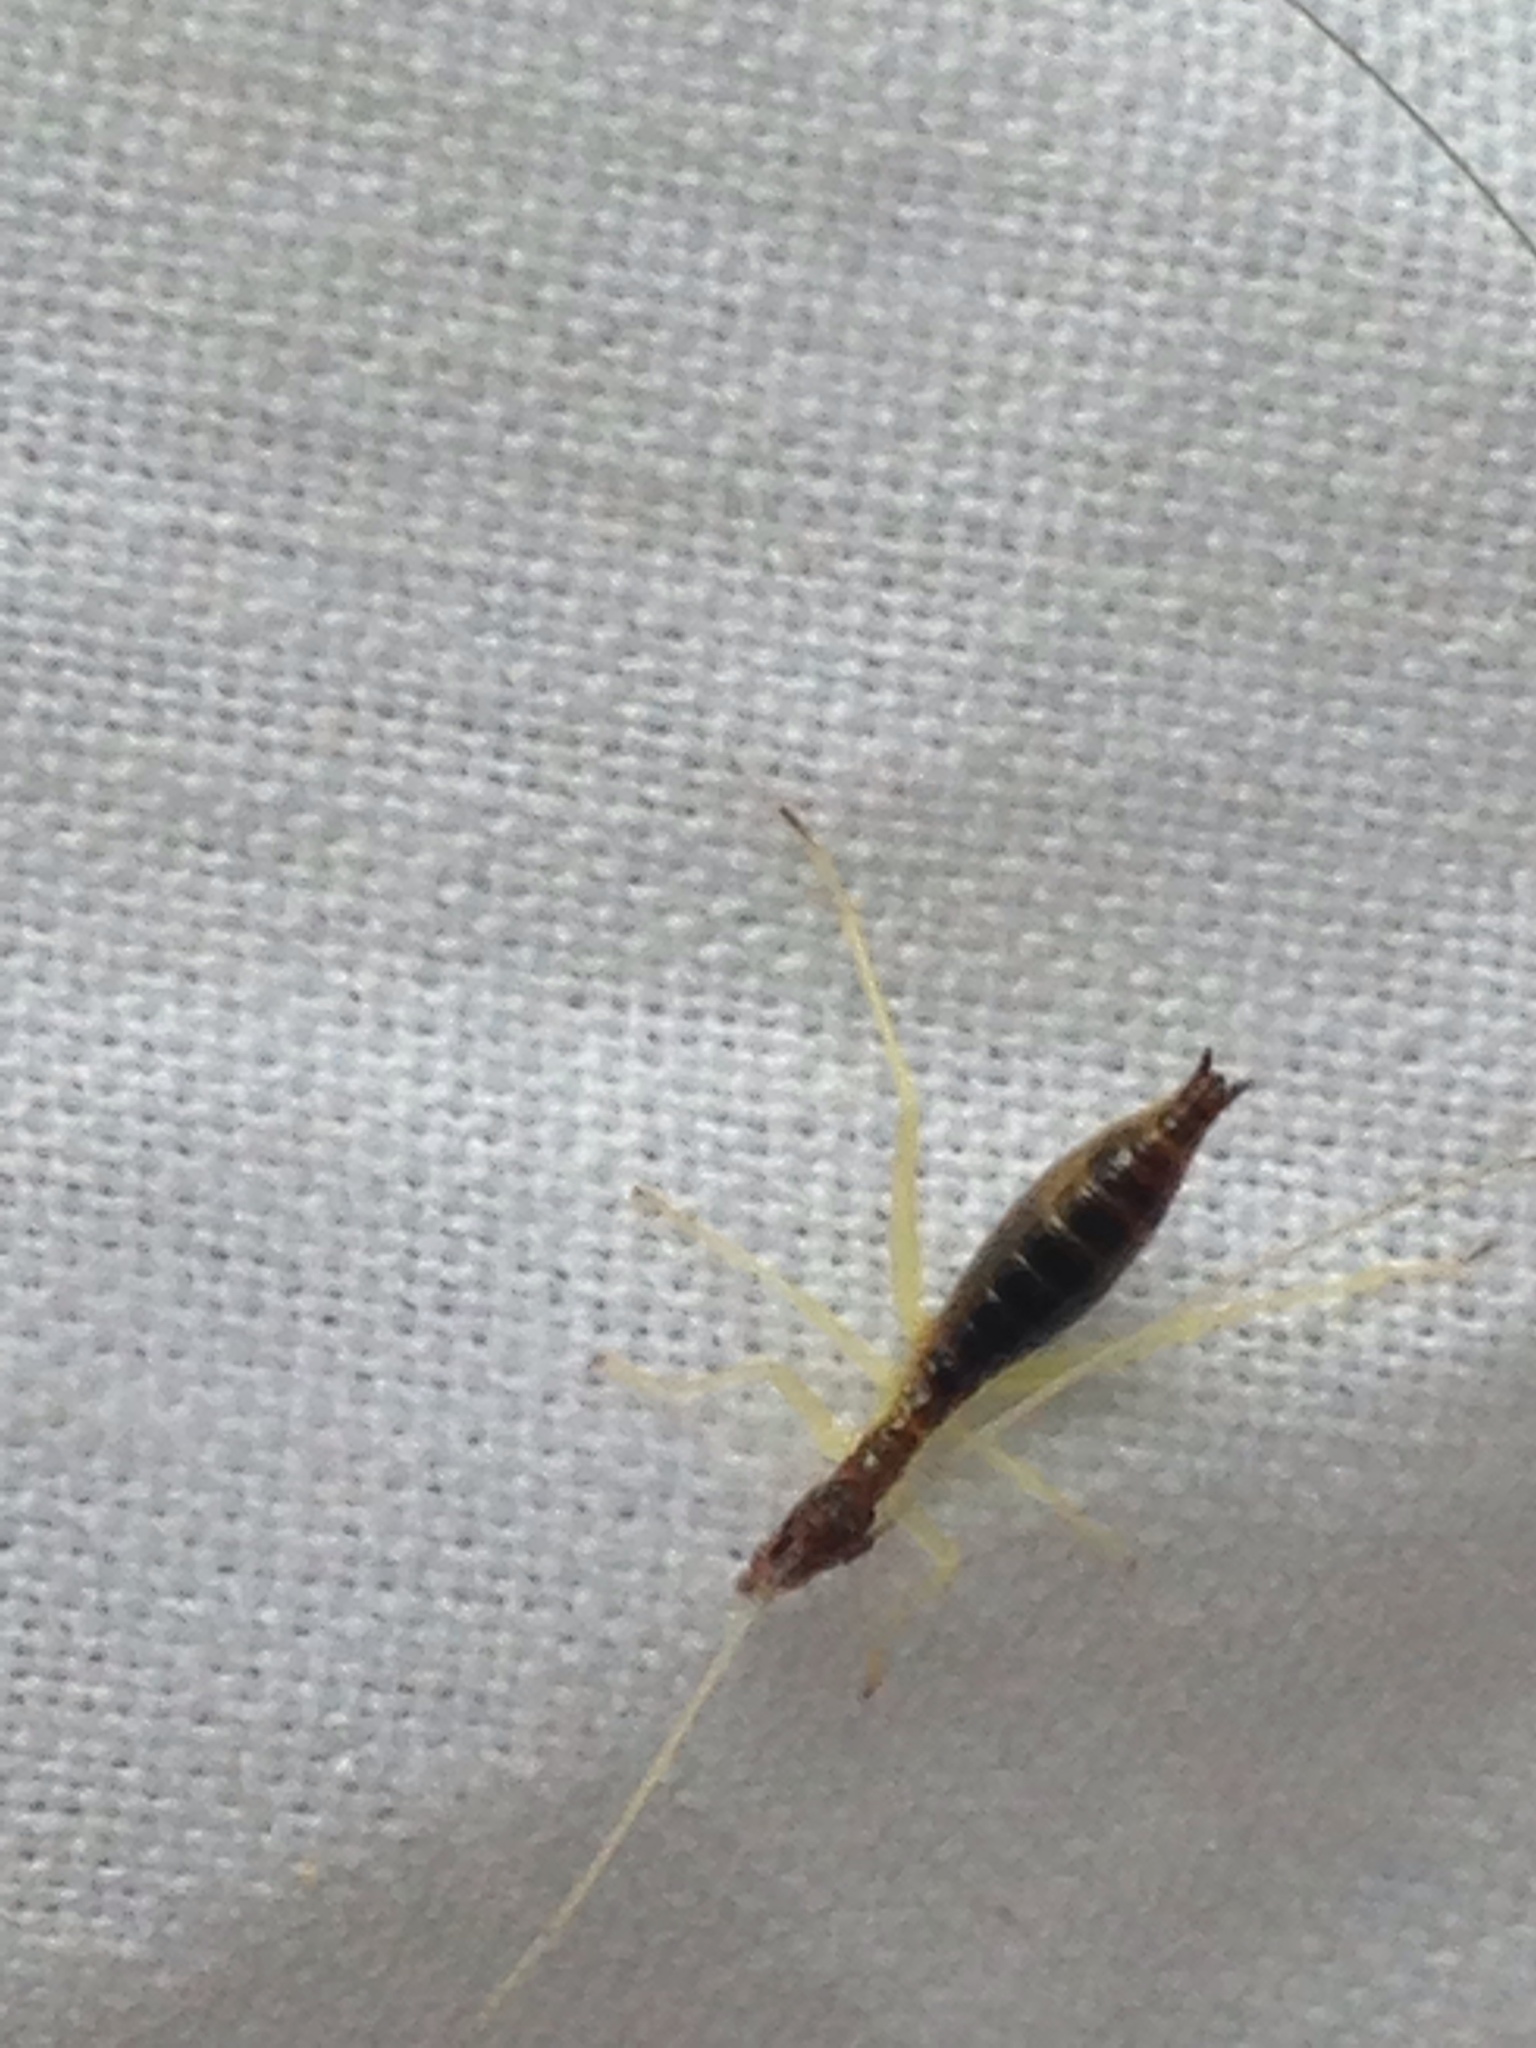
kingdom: Animalia
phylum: Arthropoda
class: Insecta
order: Orthoptera
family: Gryllidae
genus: Neoxabea
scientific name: Neoxabea bipunctata
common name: Two-spotted tree cricket
